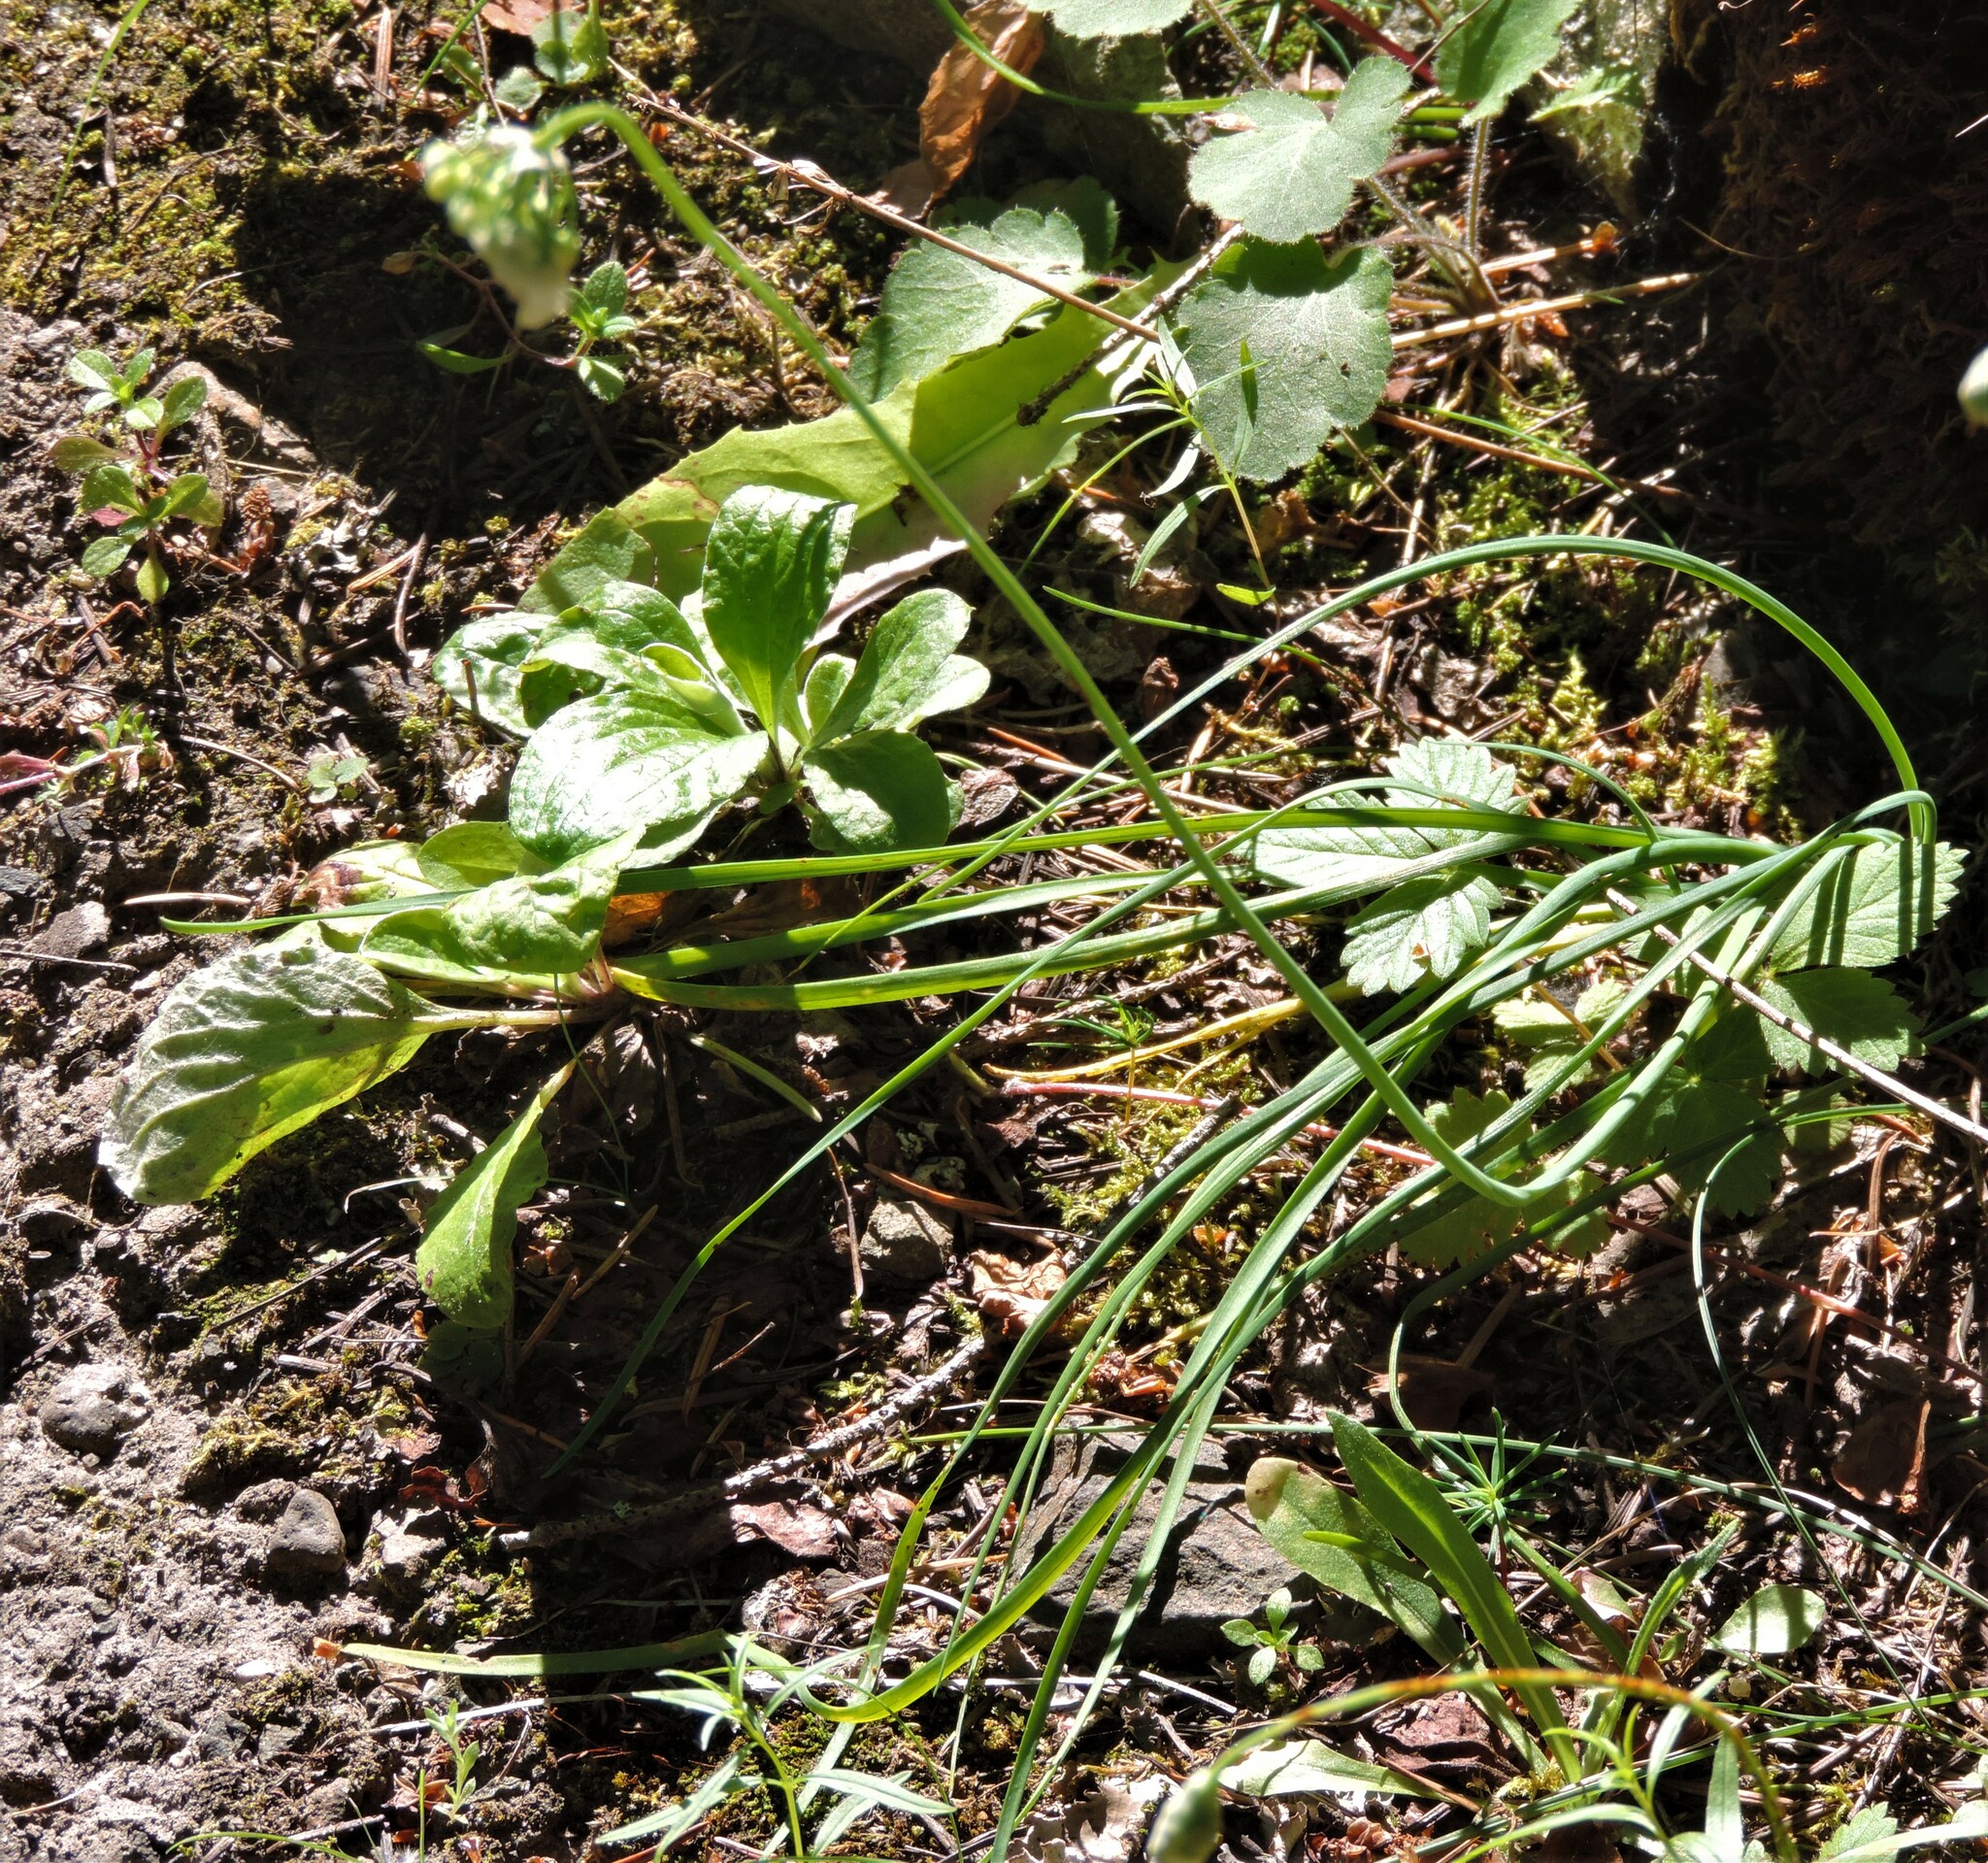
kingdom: Plantae
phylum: Tracheophyta
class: Liliopsida
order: Asparagales
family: Amaryllidaceae
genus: Allium
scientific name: Allium cernuum
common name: Nodding onion
